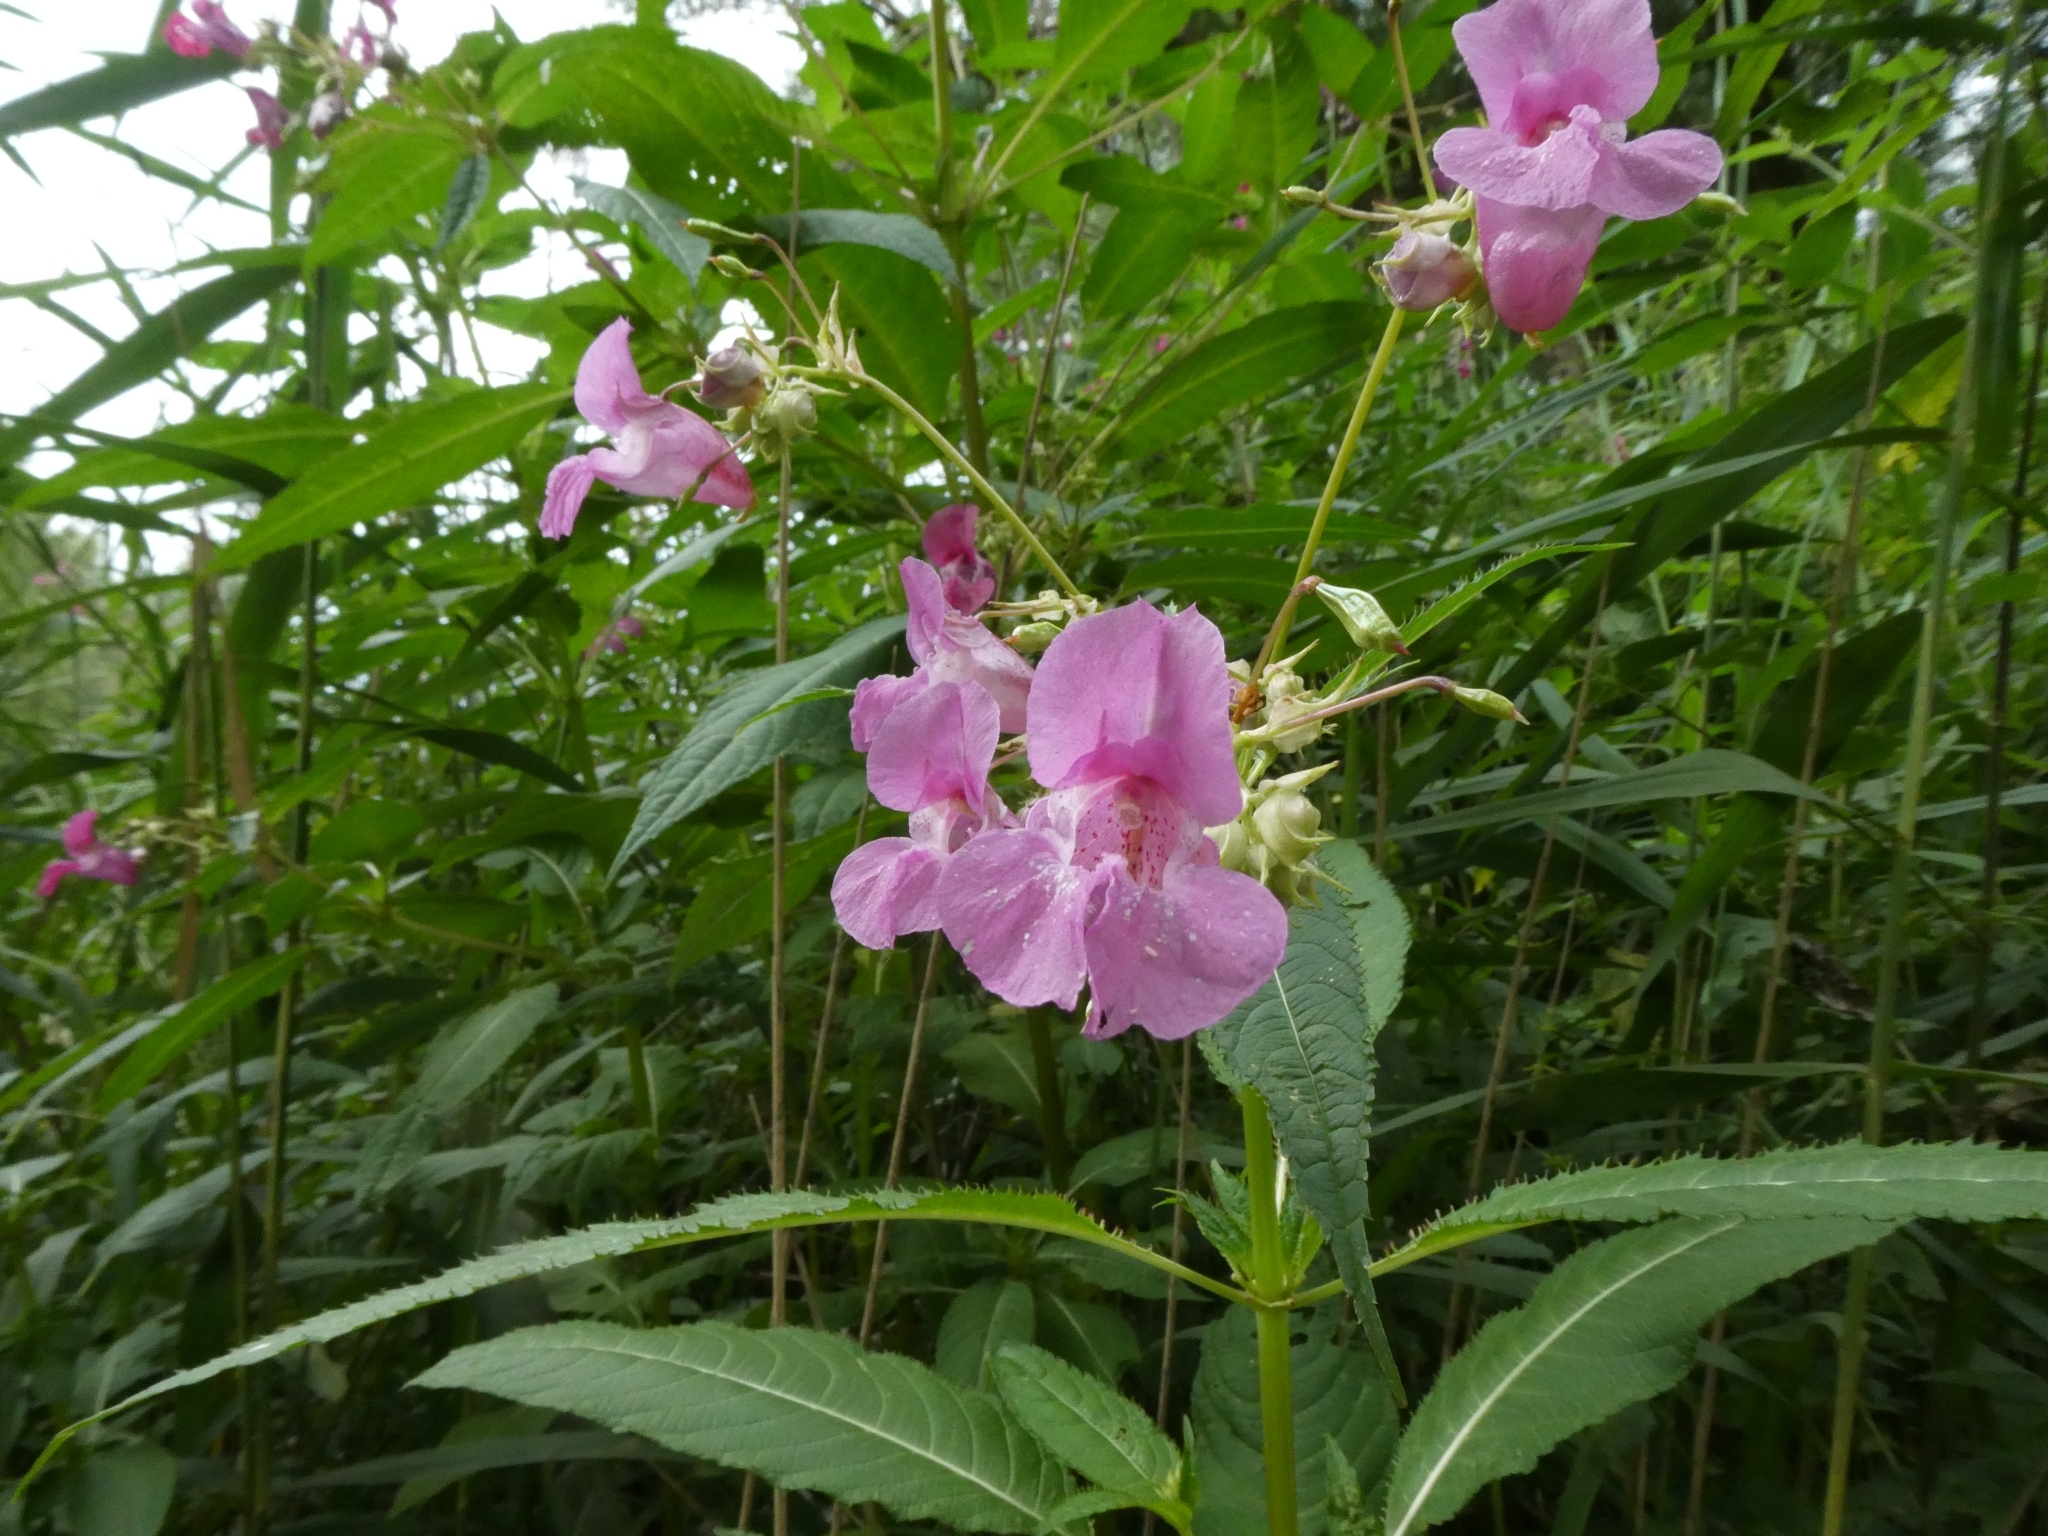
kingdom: Plantae
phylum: Tracheophyta
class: Magnoliopsida
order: Ericales
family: Balsaminaceae
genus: Impatiens
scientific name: Impatiens glandulifera
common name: Himalayan balsam
